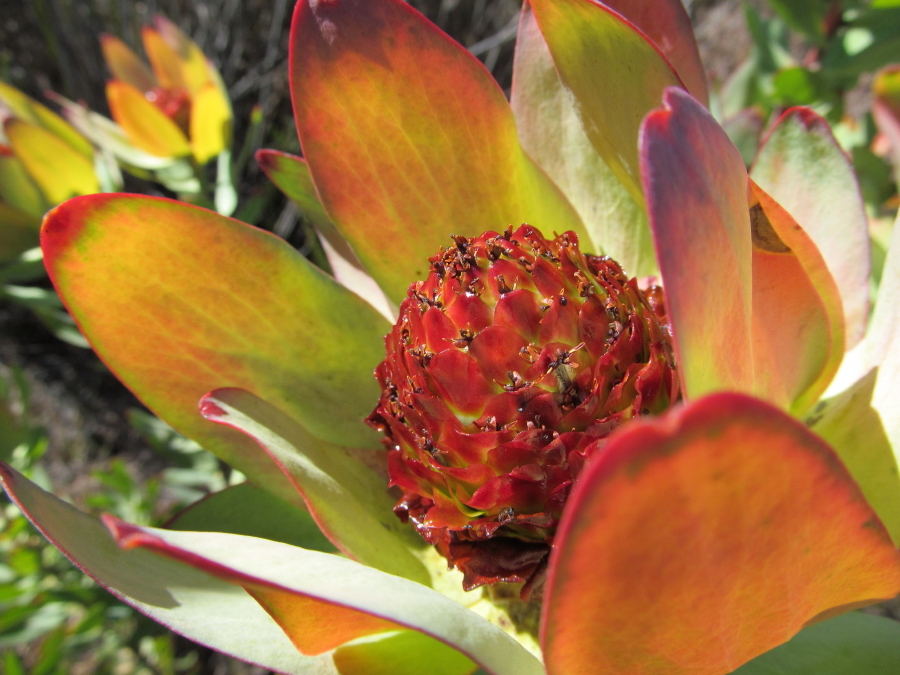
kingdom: Plantae
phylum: Tracheophyta
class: Magnoliopsida
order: Proteales
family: Proteaceae
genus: Leucadendron
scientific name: Leucadendron tinctum
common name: Spicy conebush
